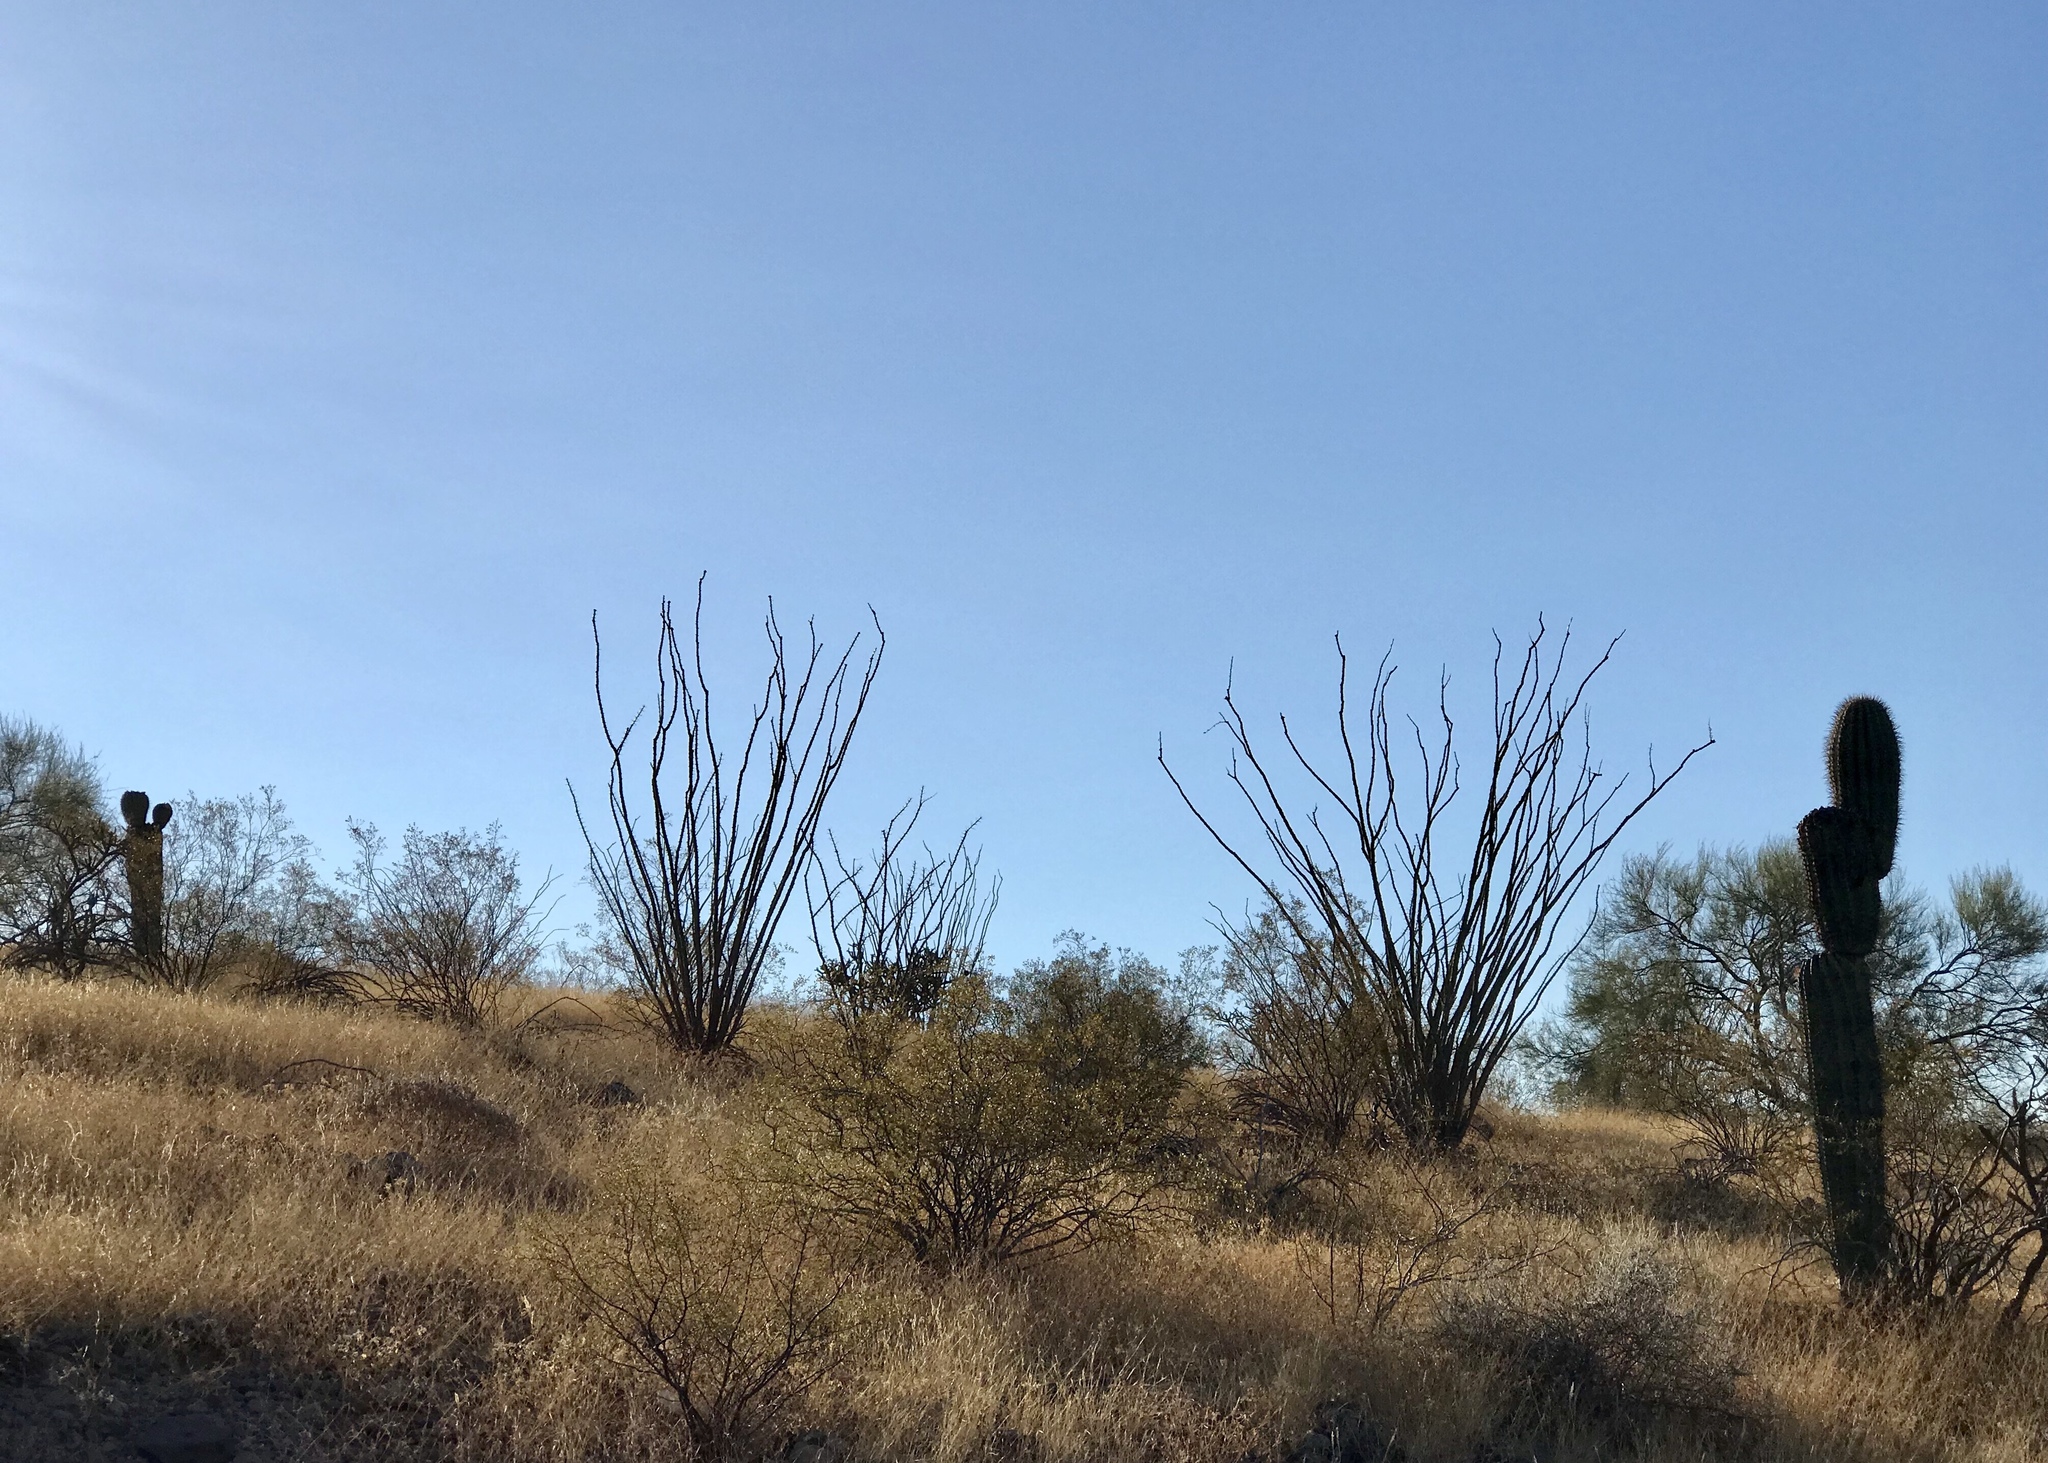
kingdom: Plantae
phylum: Tracheophyta
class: Magnoliopsida
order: Ericales
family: Fouquieriaceae
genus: Fouquieria
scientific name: Fouquieria splendens
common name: Vine-cactus
